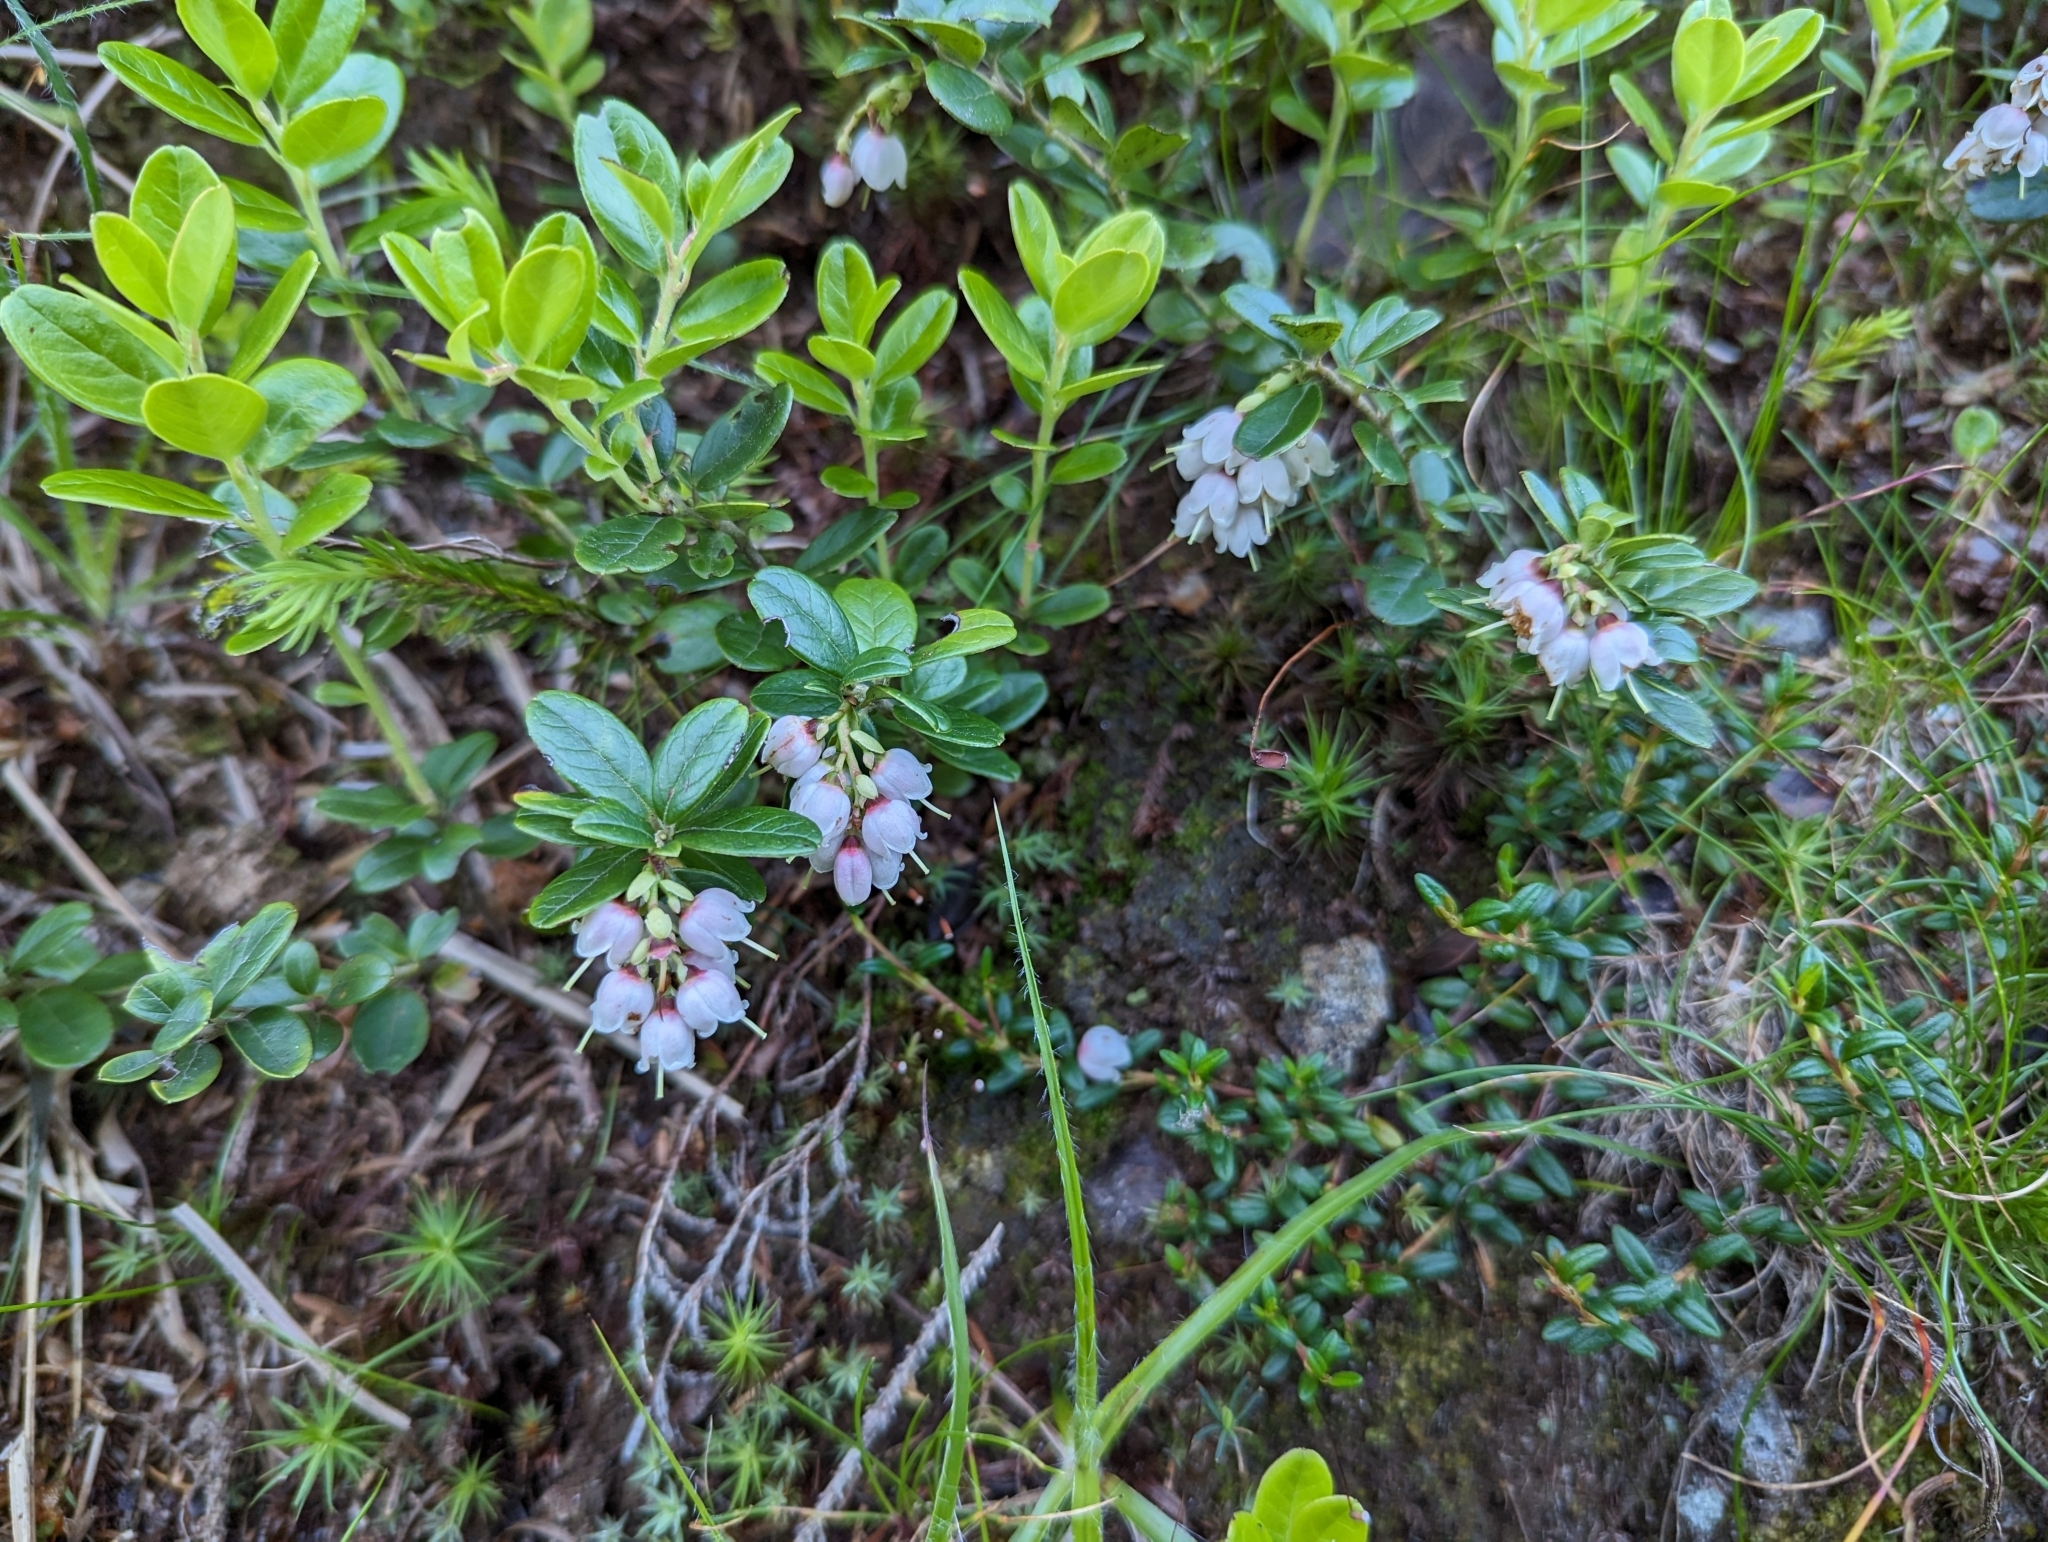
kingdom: Plantae
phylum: Tracheophyta
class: Magnoliopsida
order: Ericales
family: Ericaceae
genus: Vaccinium
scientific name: Vaccinium vitis-idaea
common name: Cowberry
